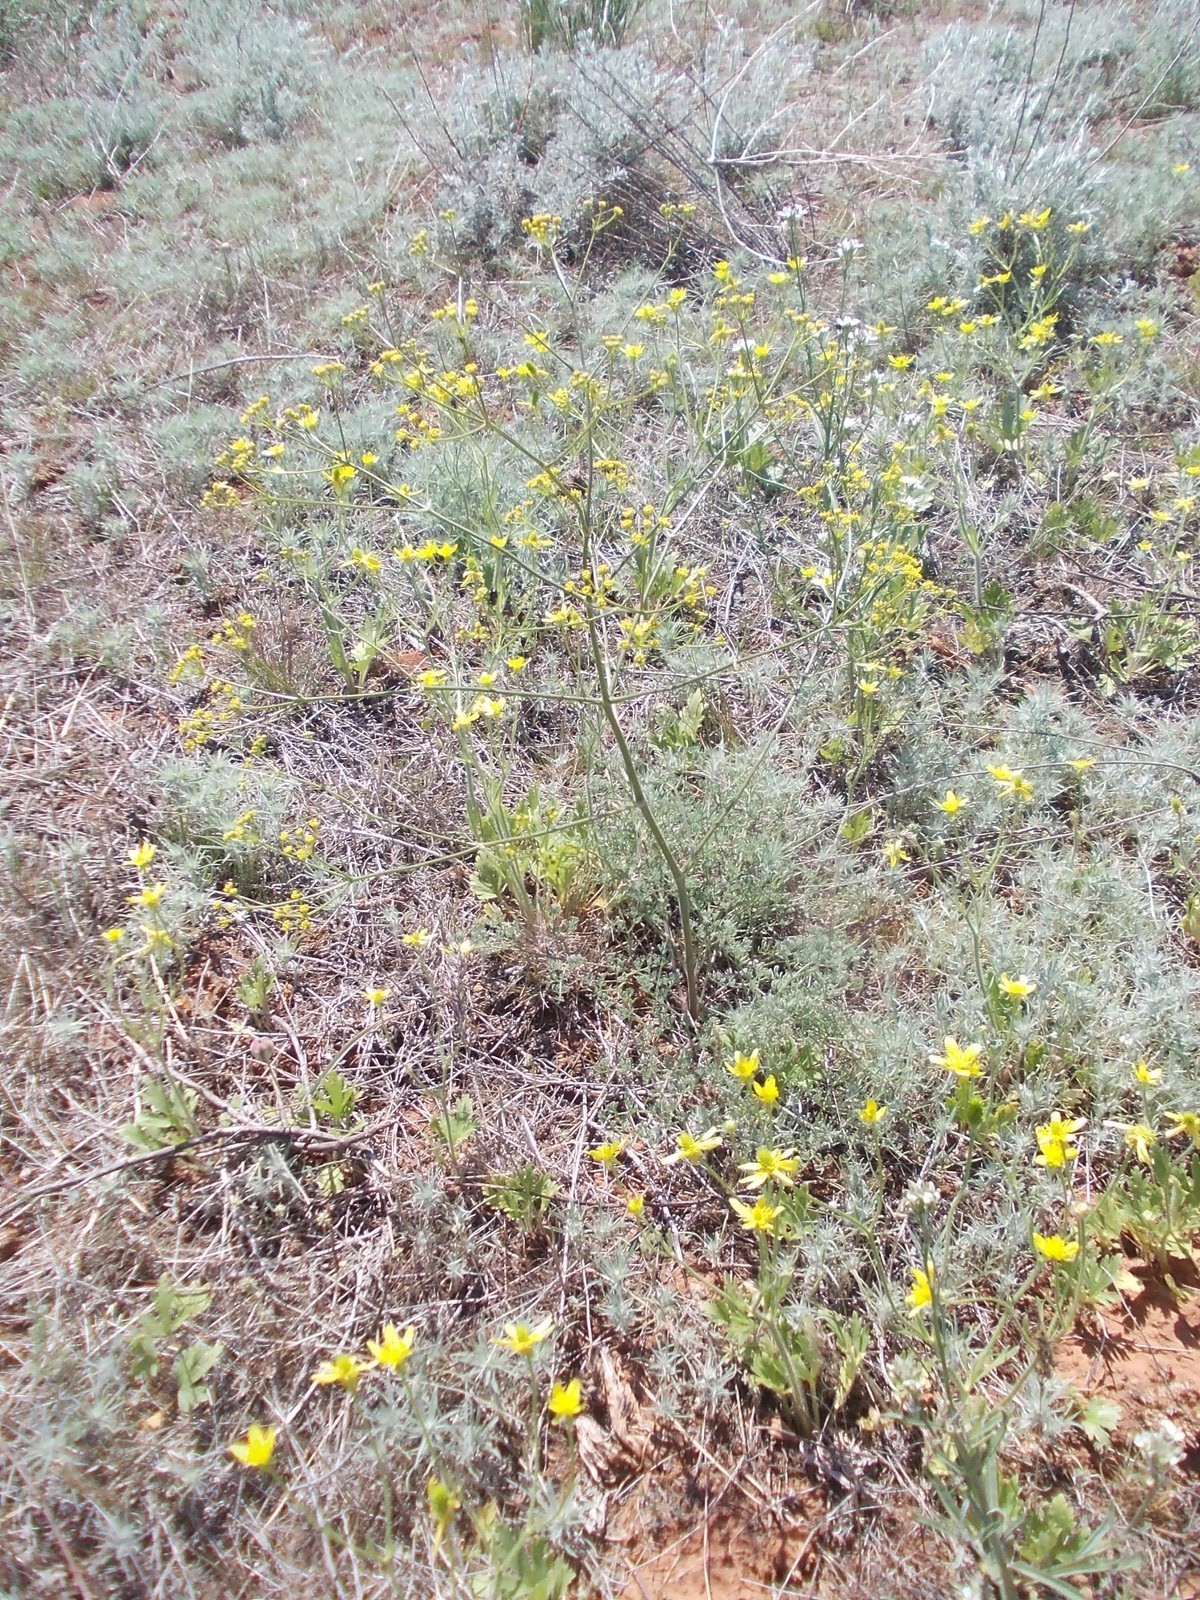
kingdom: Plantae
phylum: Tracheophyta
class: Magnoliopsida
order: Apiales
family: Apiaceae
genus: Prangos
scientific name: Prangos odontalgica
